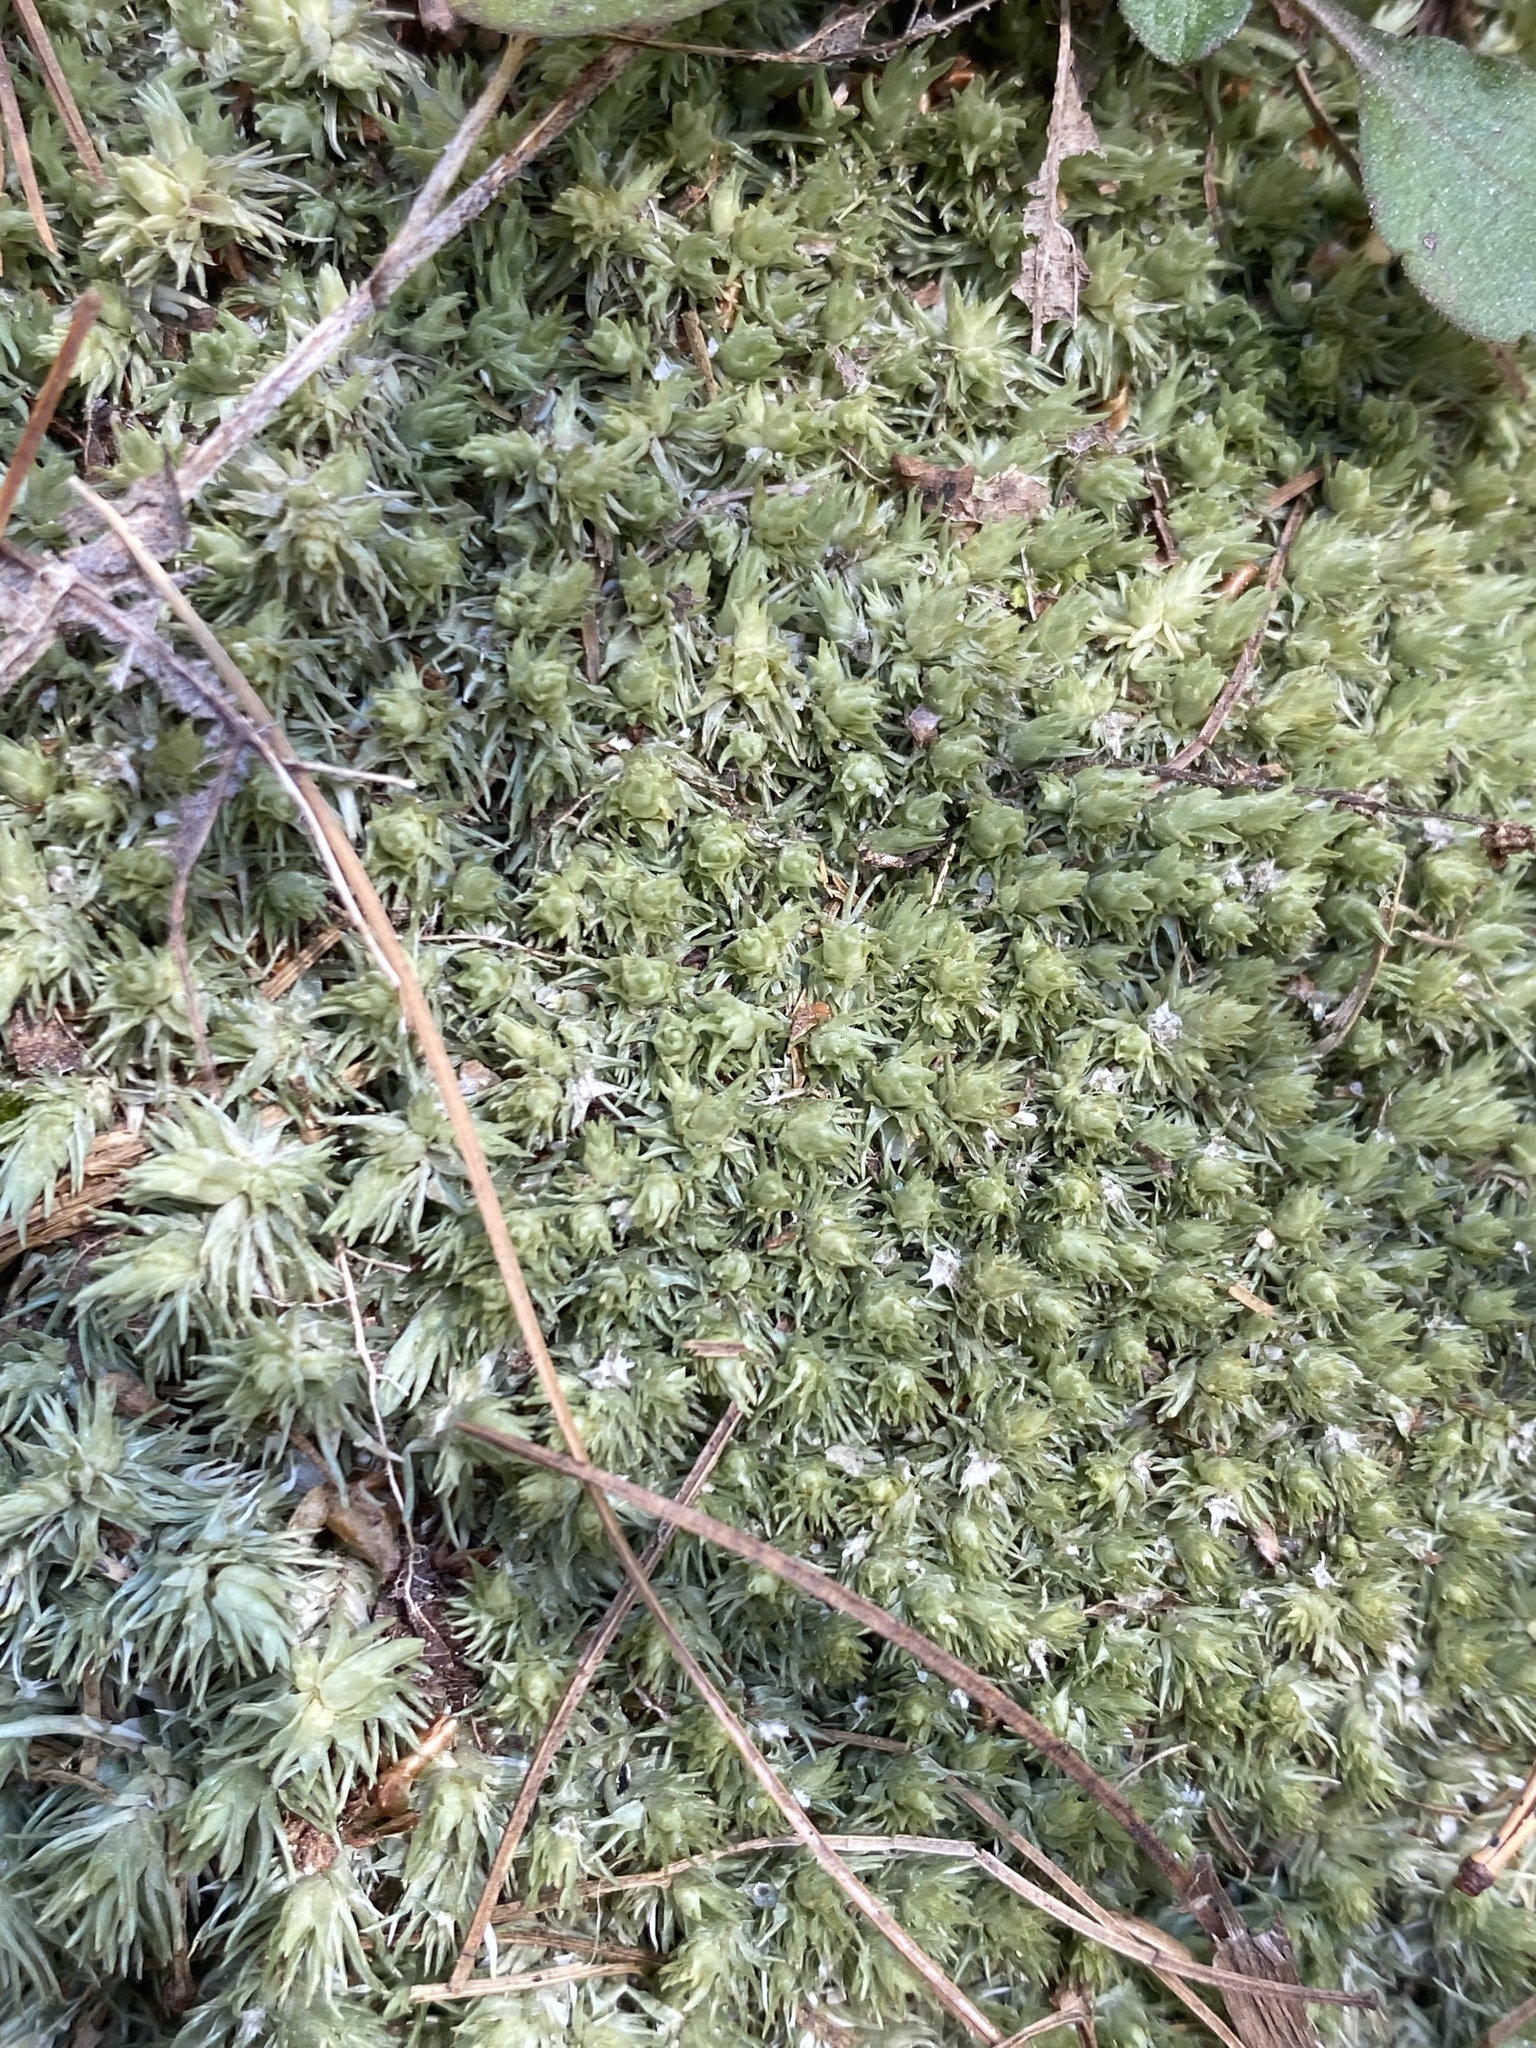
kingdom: Plantae
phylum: Bryophyta
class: Bryopsida
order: Dicranales
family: Leucobryaceae
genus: Leucobryum
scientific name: Leucobryum glaucum
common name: Large white-moss
